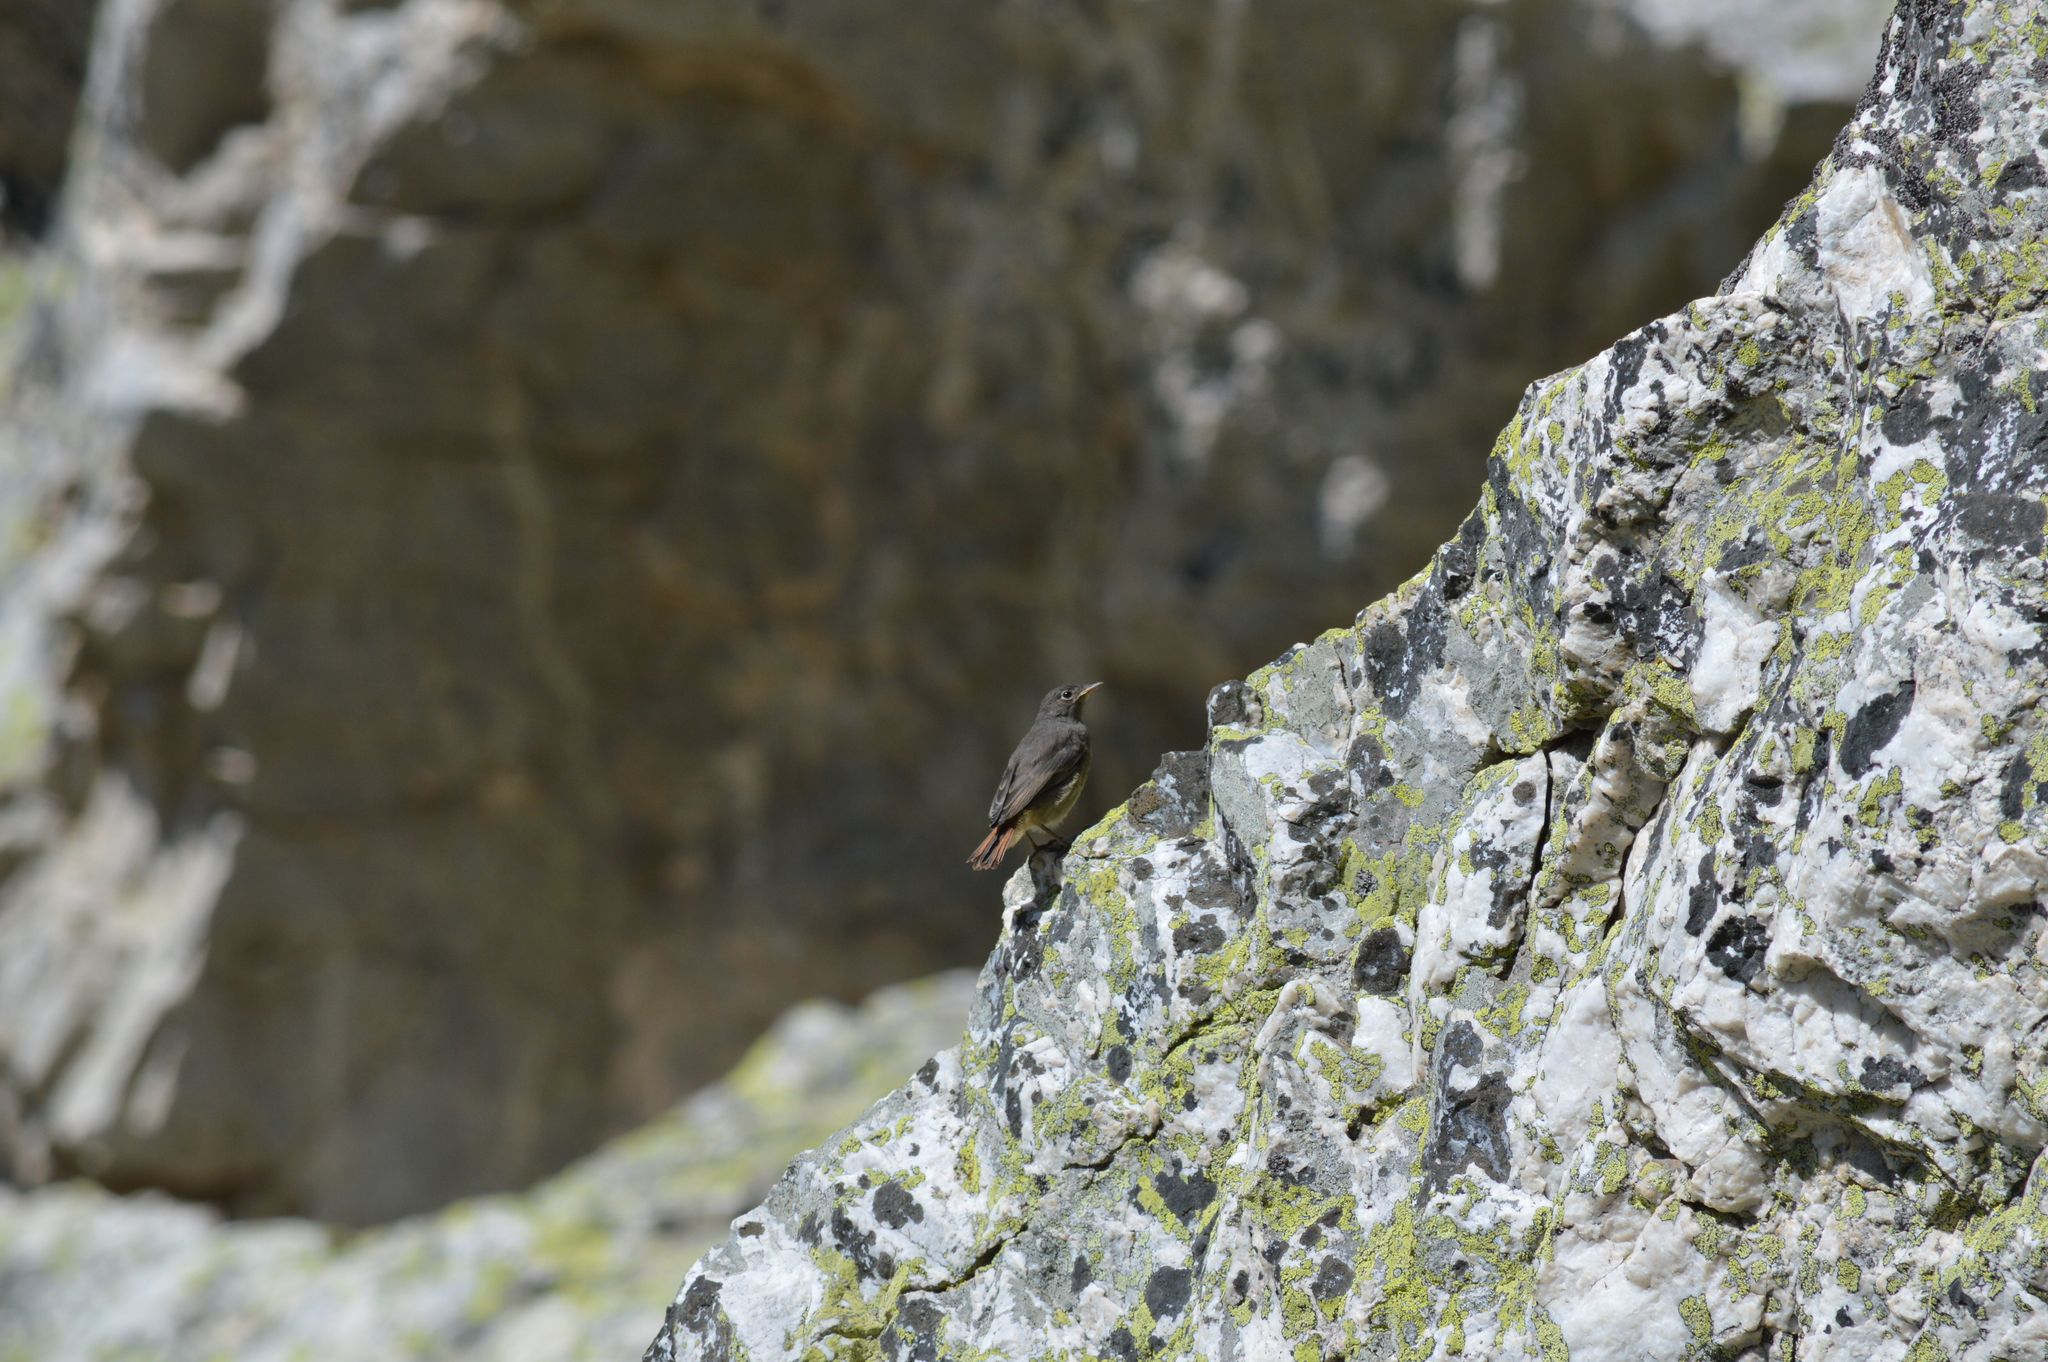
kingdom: Animalia
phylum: Chordata
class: Aves
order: Passeriformes
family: Muscicapidae
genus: Phoenicurus
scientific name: Phoenicurus ochruros
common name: Black redstart
